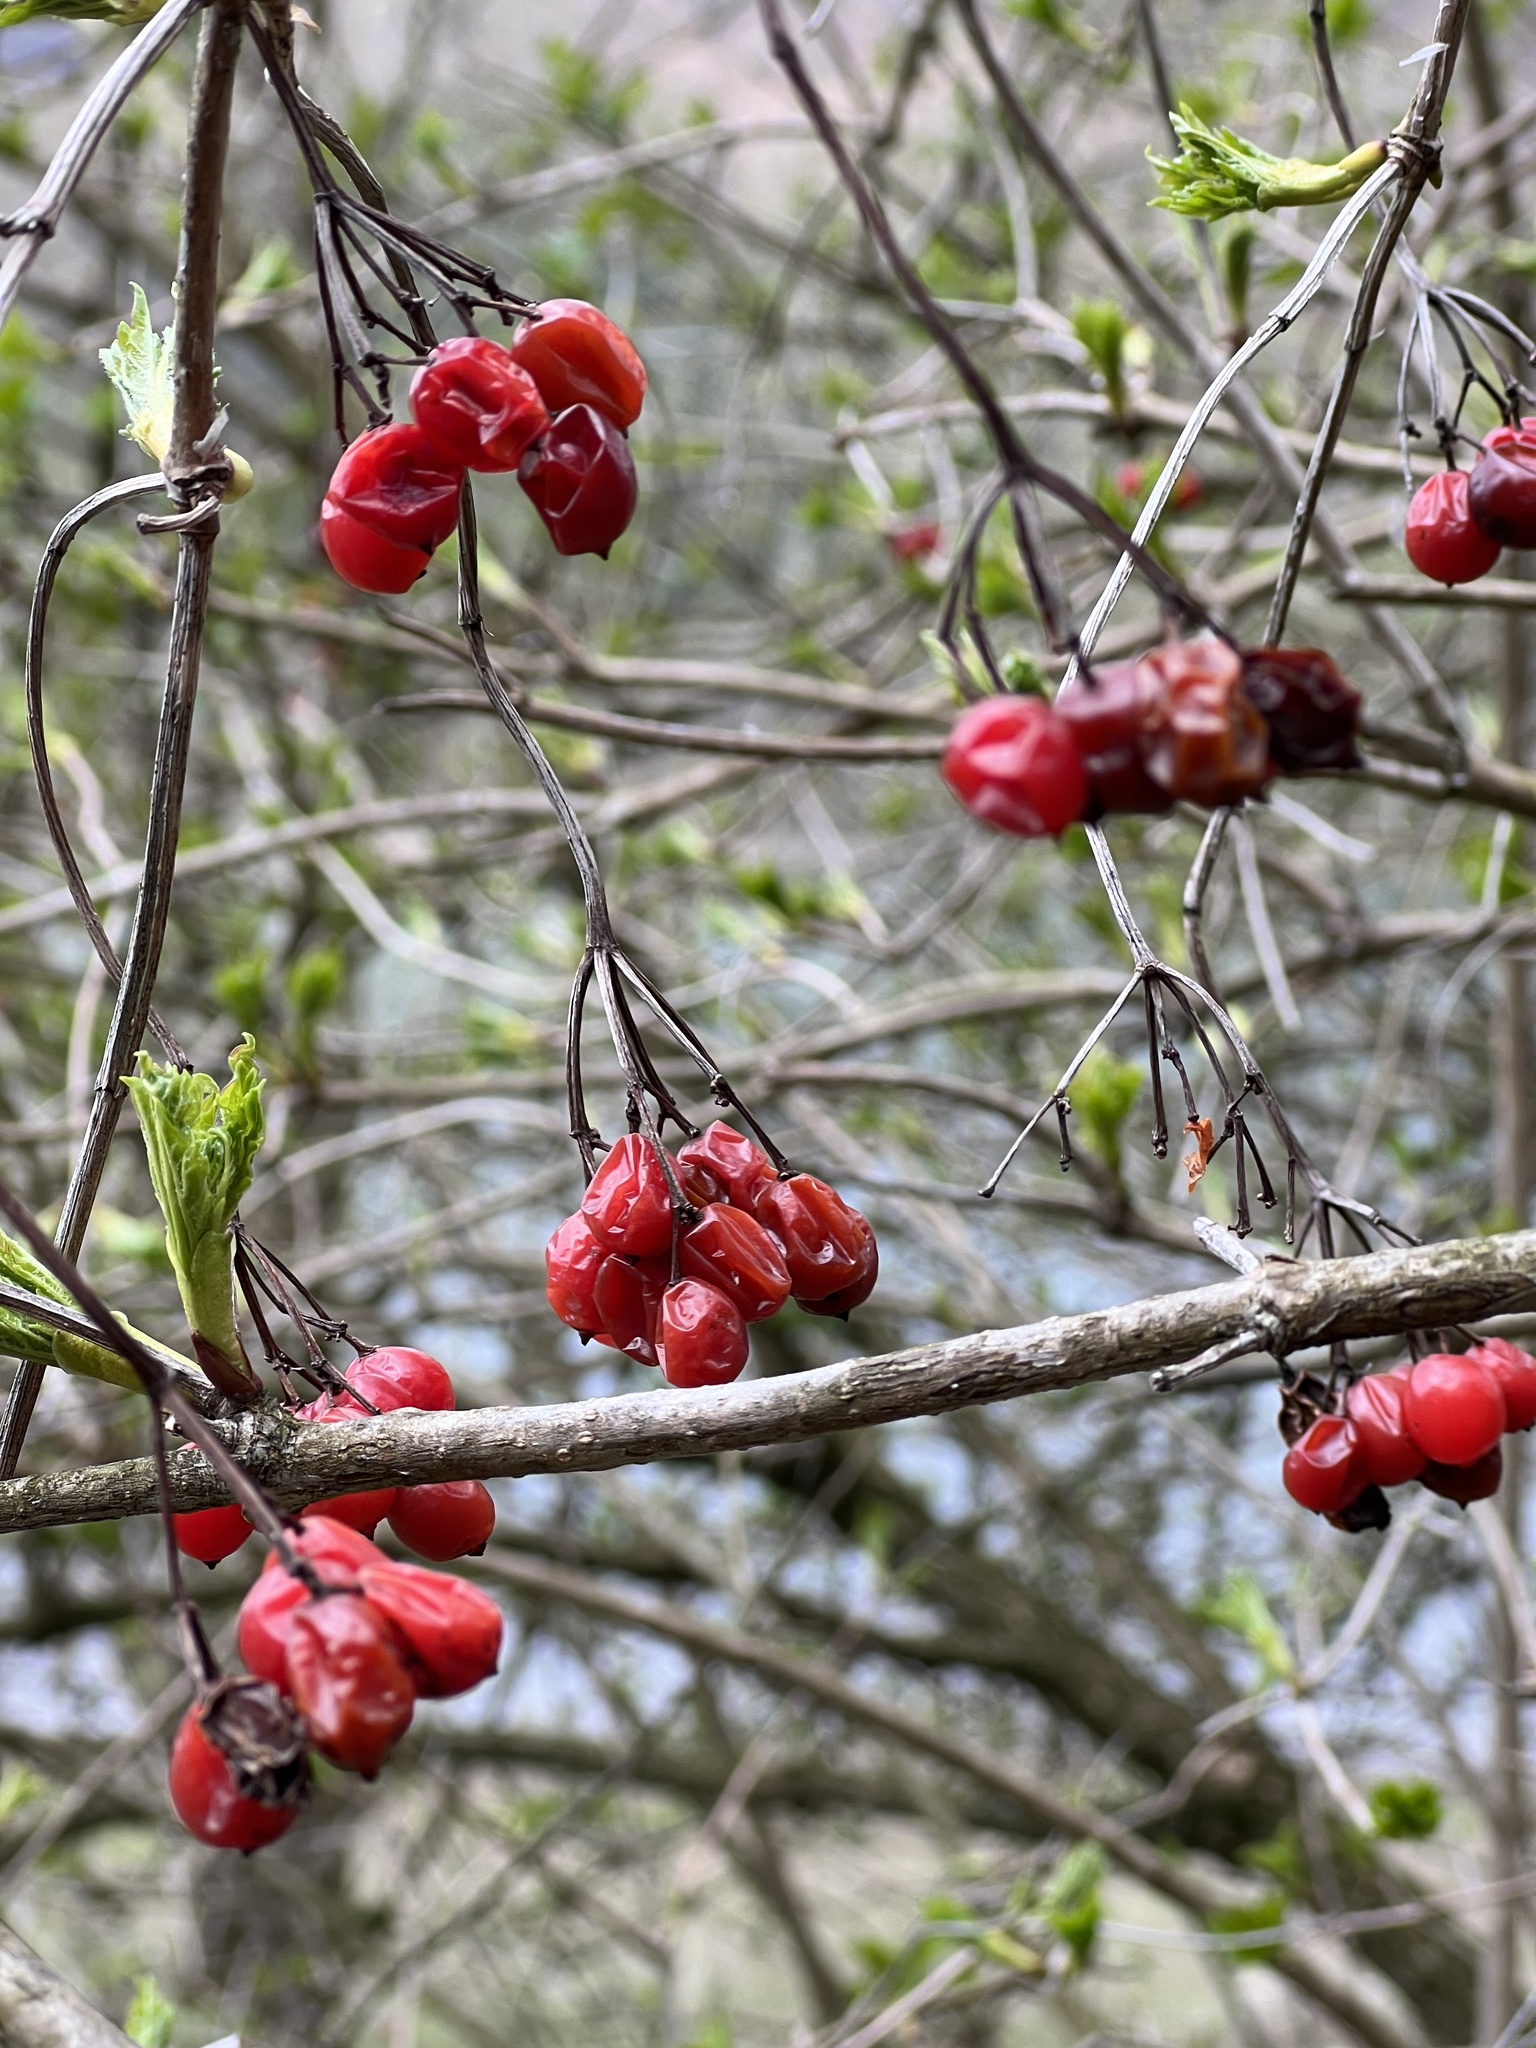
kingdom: Plantae
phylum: Tracheophyta
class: Magnoliopsida
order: Dipsacales
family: Viburnaceae
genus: Viburnum
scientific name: Viburnum opulus
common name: Guelder-rose
